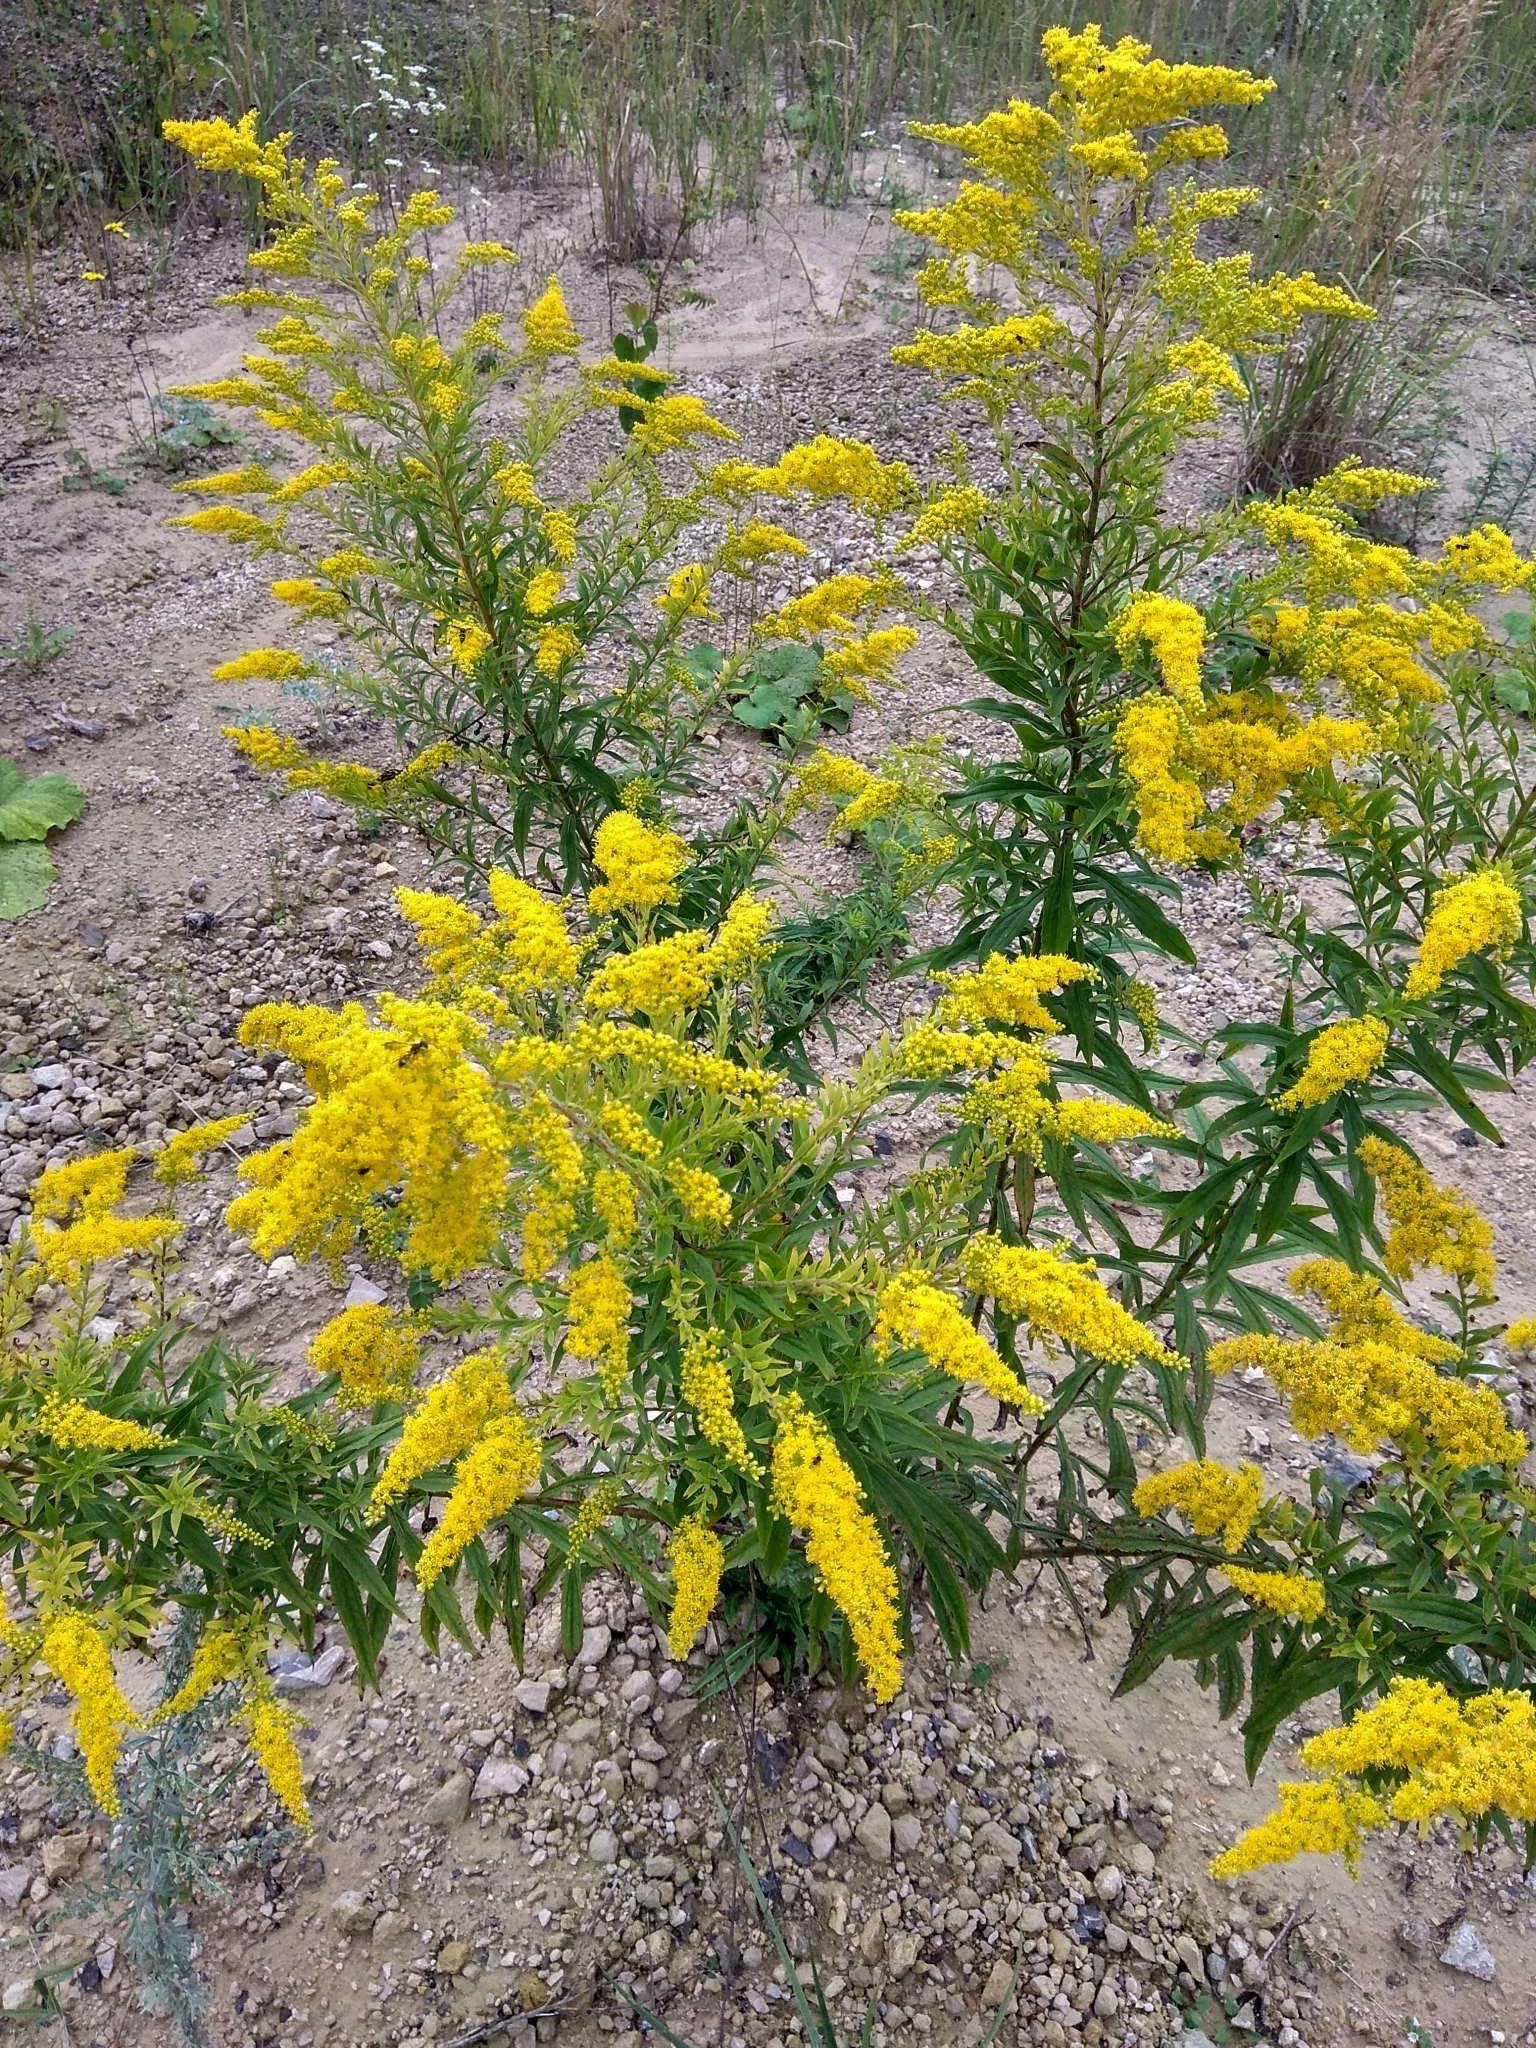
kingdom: Plantae
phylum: Tracheophyta
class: Magnoliopsida
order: Asterales
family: Asteraceae
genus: Solidago
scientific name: Solidago canadensis
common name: Canada goldenrod
